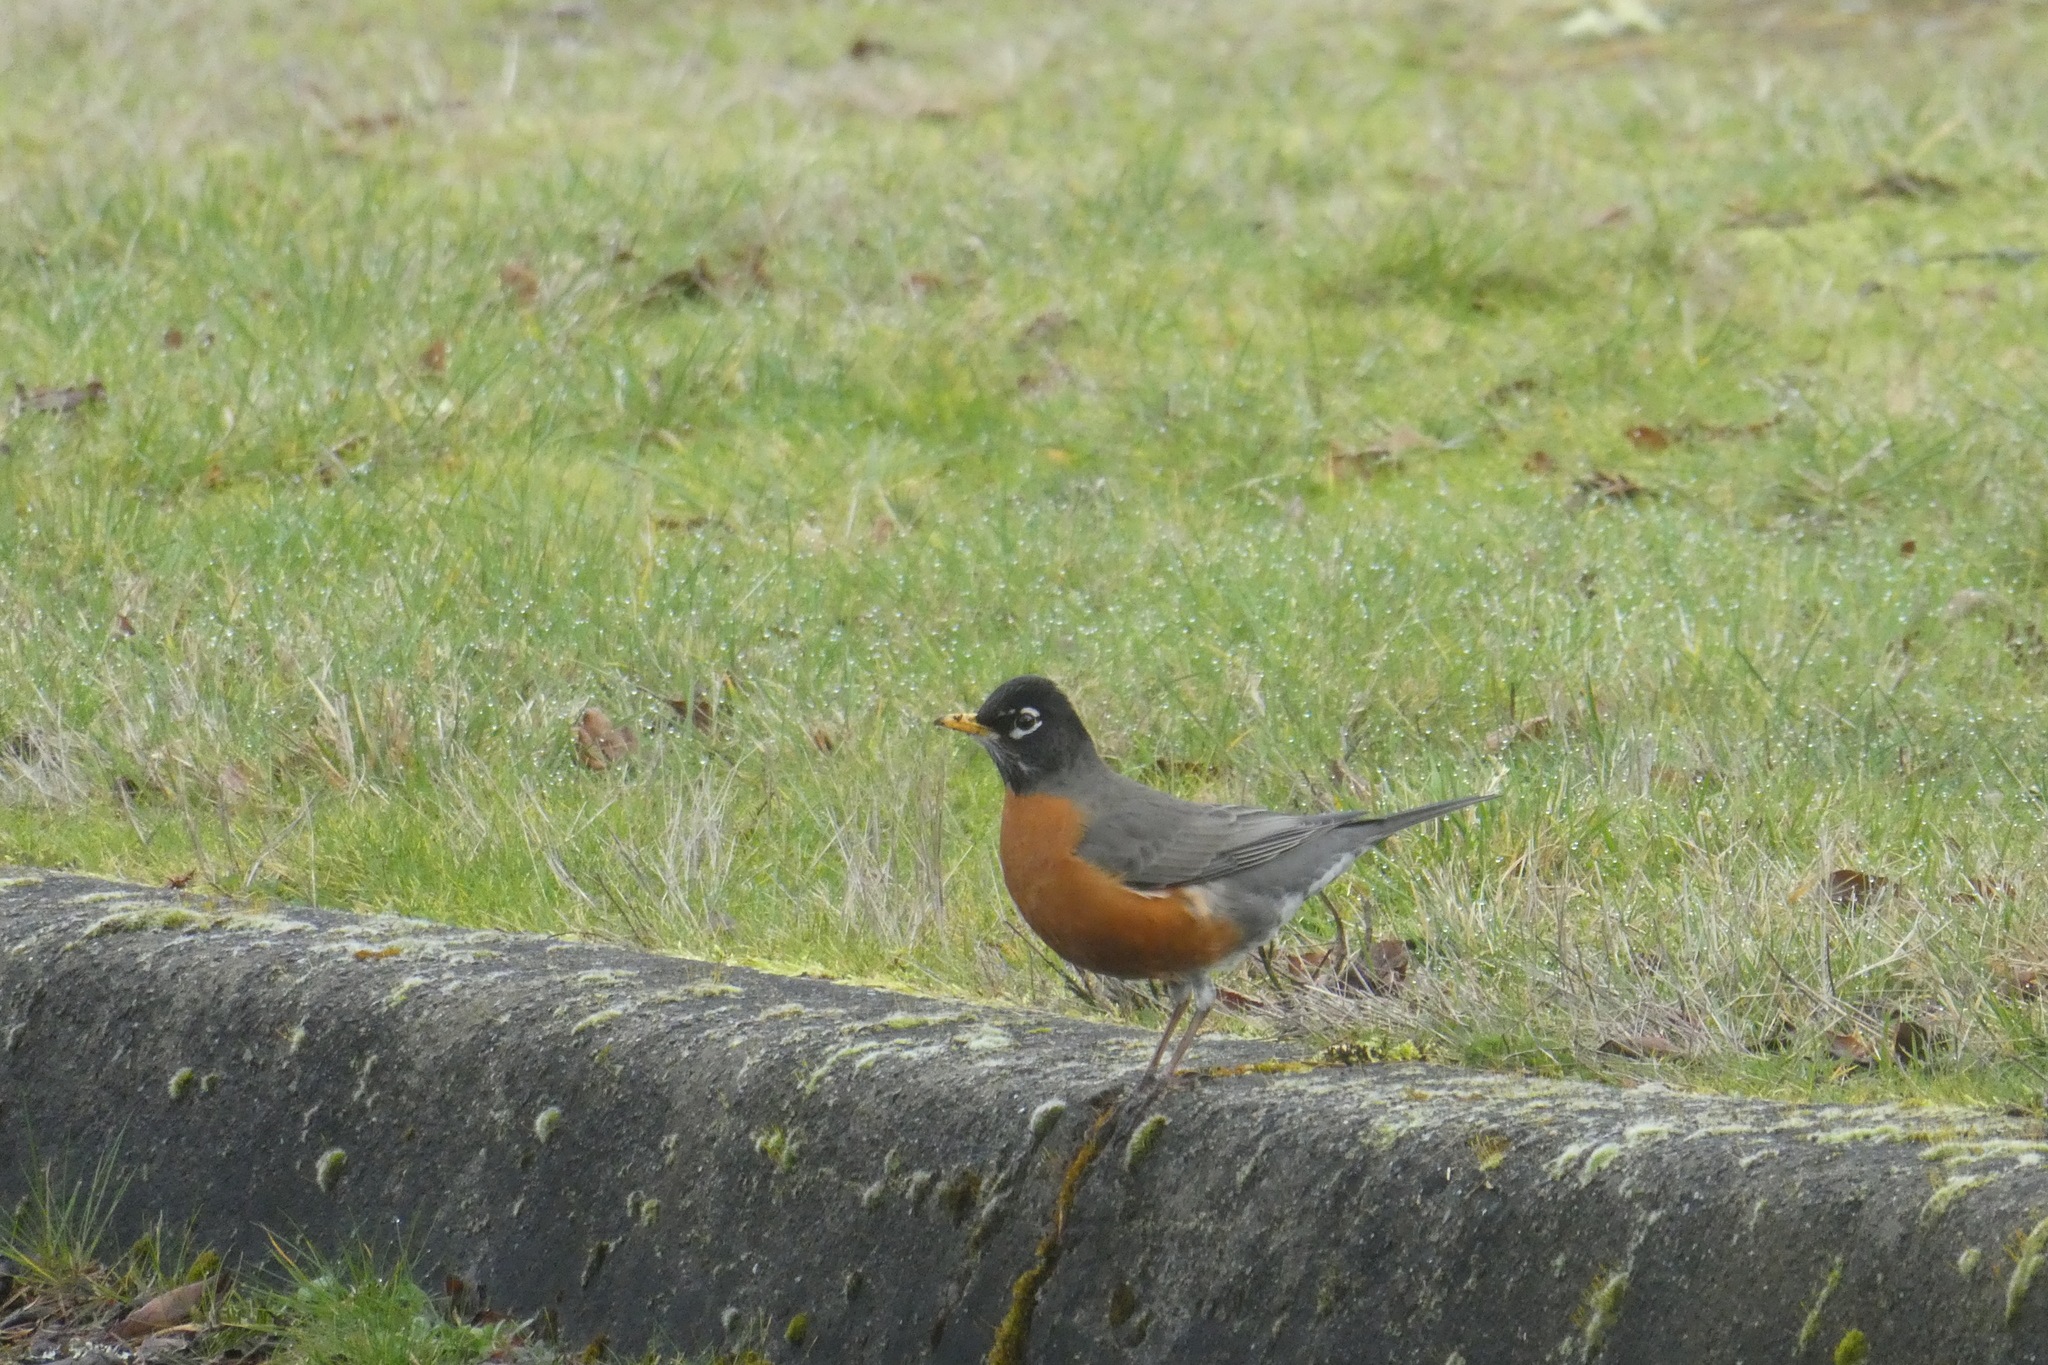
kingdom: Animalia
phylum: Chordata
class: Aves
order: Passeriformes
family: Turdidae
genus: Turdus
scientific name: Turdus migratorius
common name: American robin
